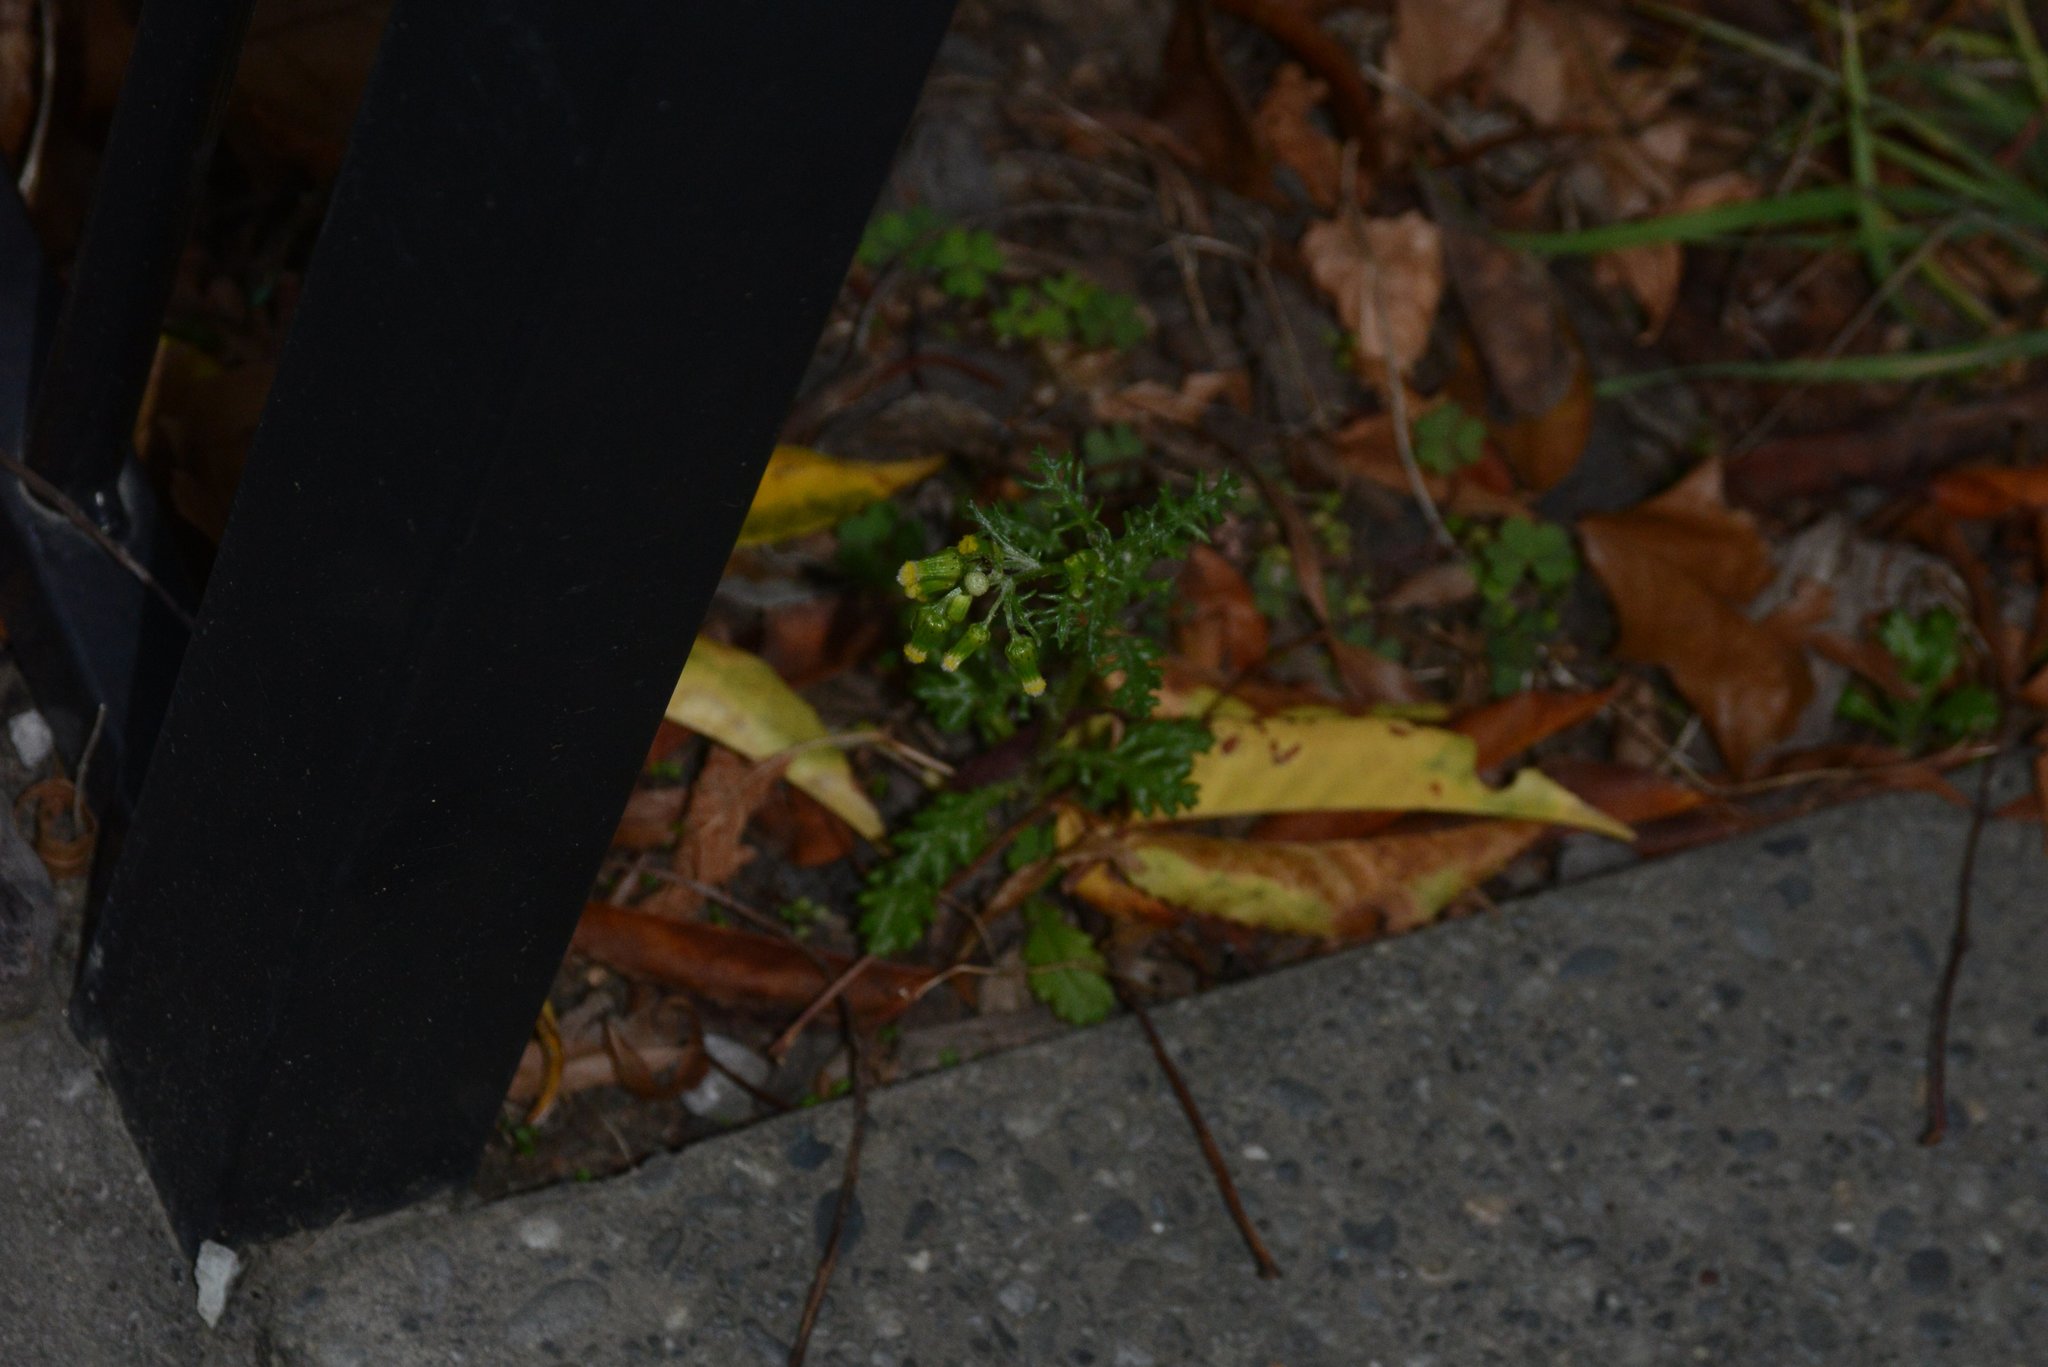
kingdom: Plantae
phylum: Tracheophyta
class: Magnoliopsida
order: Asterales
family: Asteraceae
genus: Senecio
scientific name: Senecio vulgaris
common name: Old-man-in-the-spring
